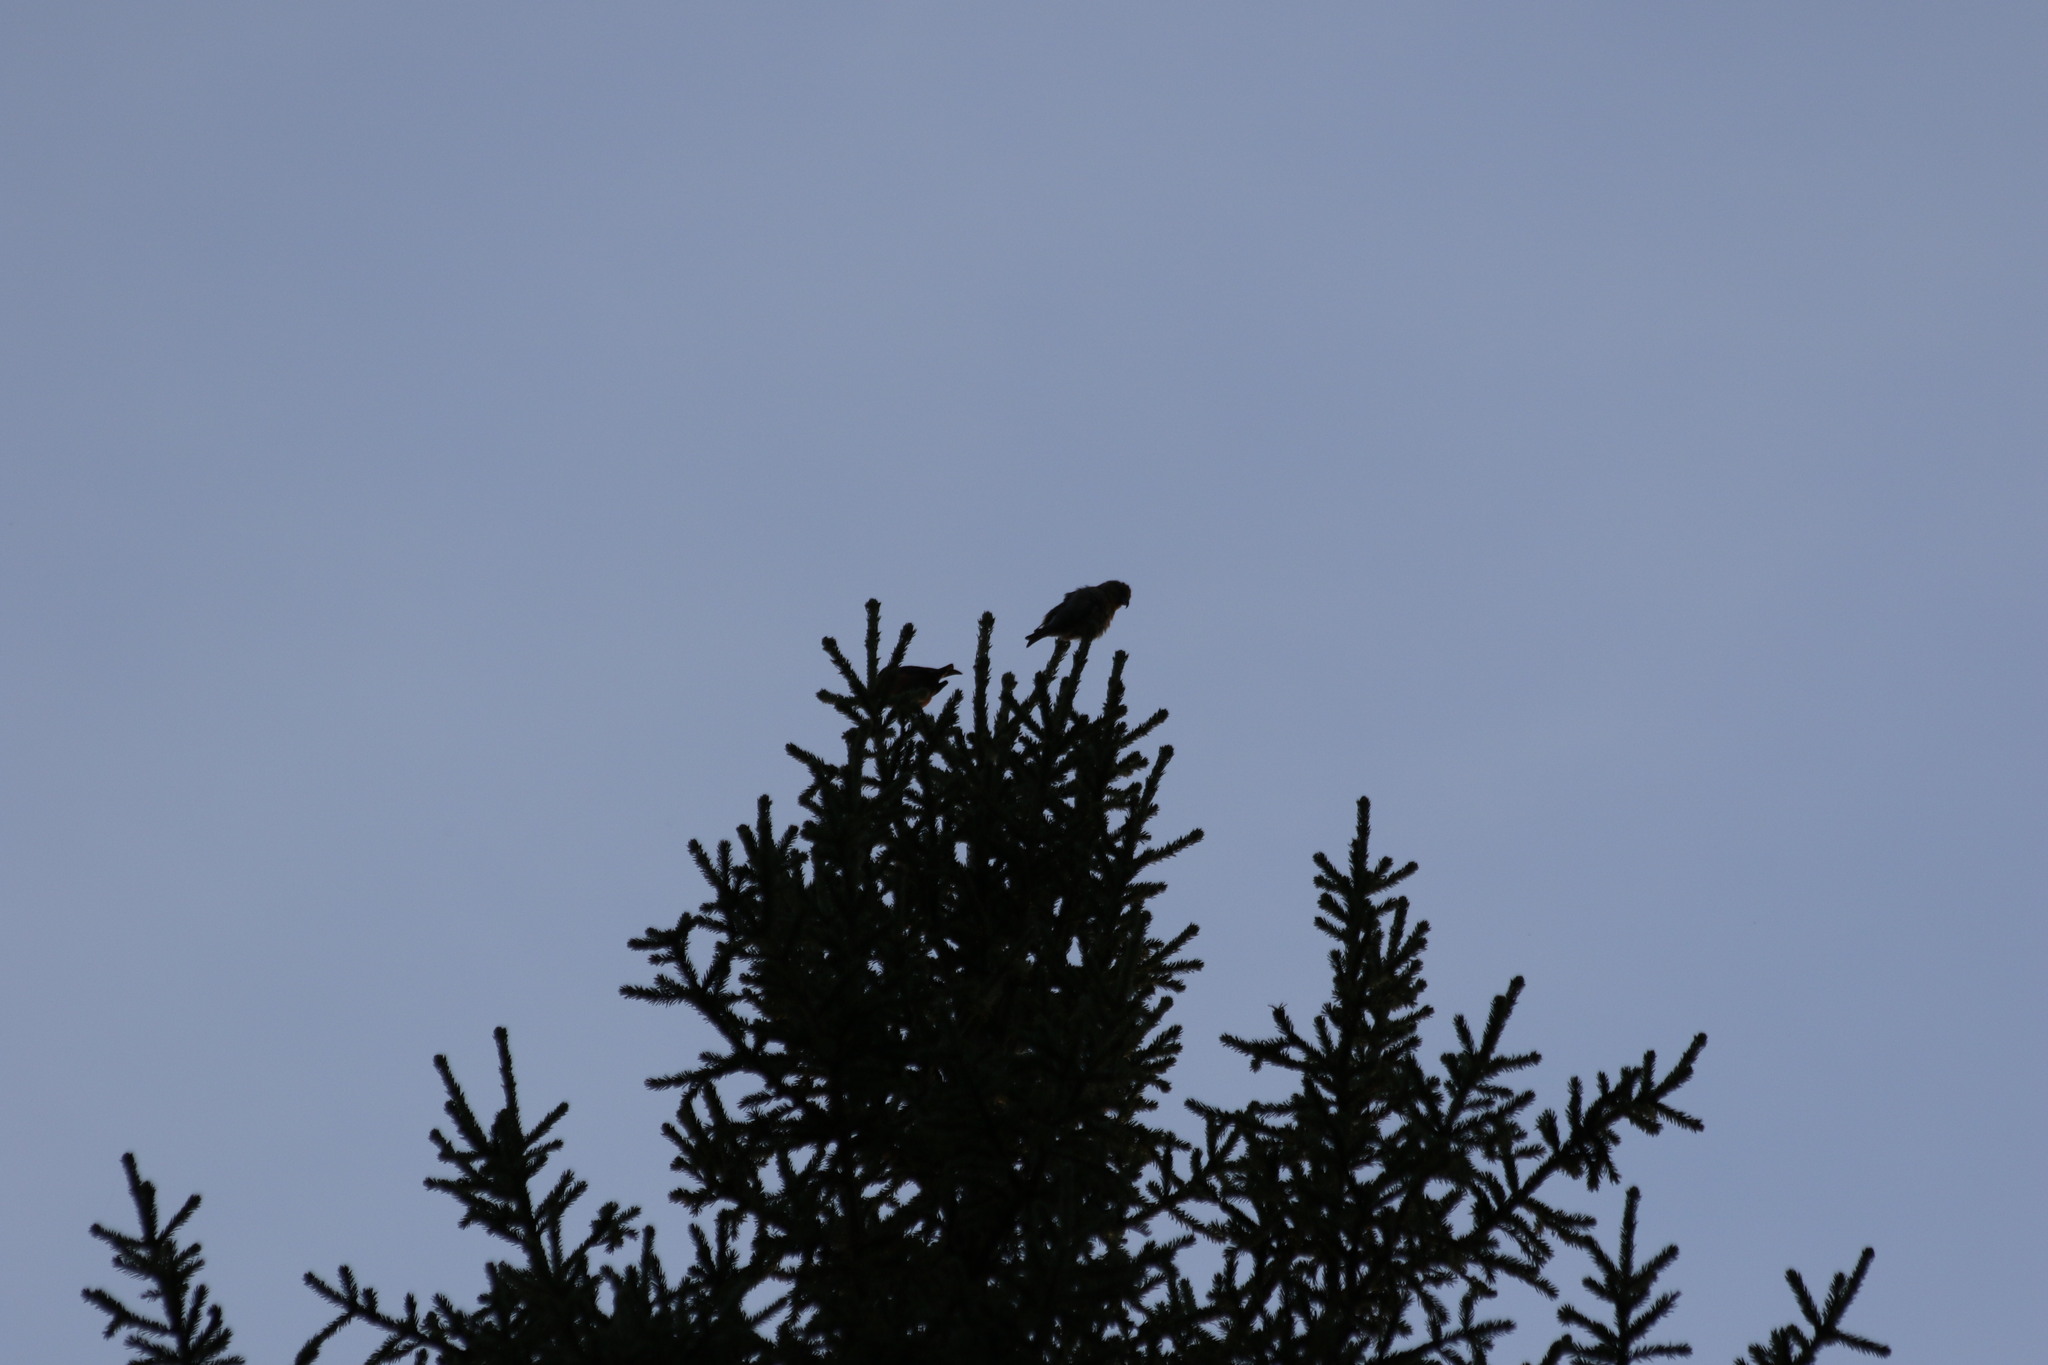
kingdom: Animalia
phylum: Chordata
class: Aves
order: Passeriformes
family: Fringillidae
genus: Loxia
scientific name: Loxia curvirostra
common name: Red crossbill
